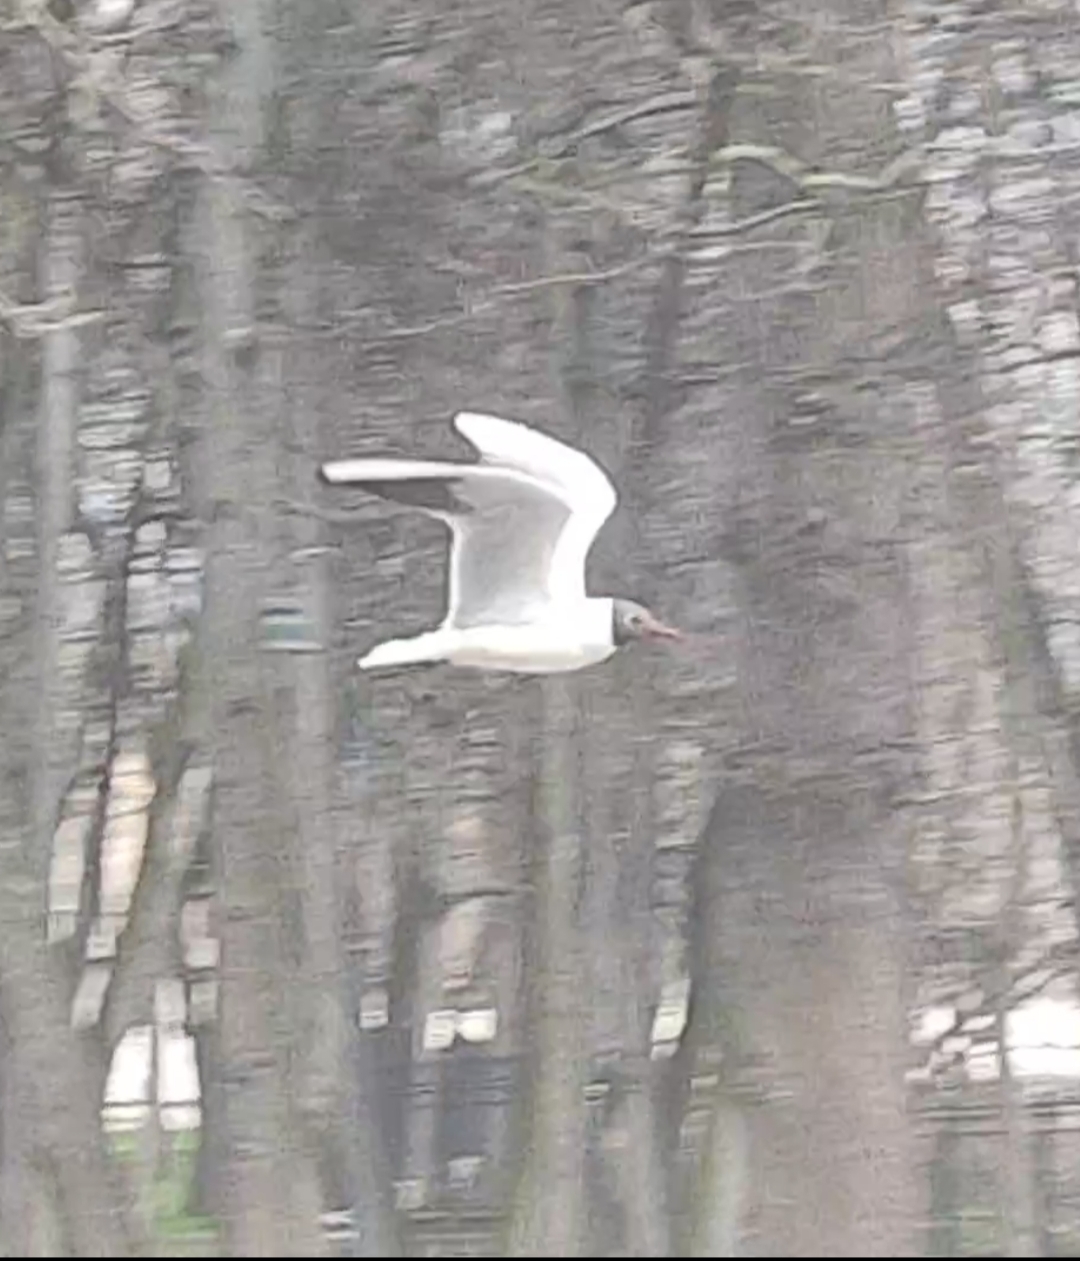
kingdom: Animalia
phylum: Chordata
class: Aves
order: Charadriiformes
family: Laridae
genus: Chroicocephalus
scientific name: Chroicocephalus ridibundus
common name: Black-headed gull
